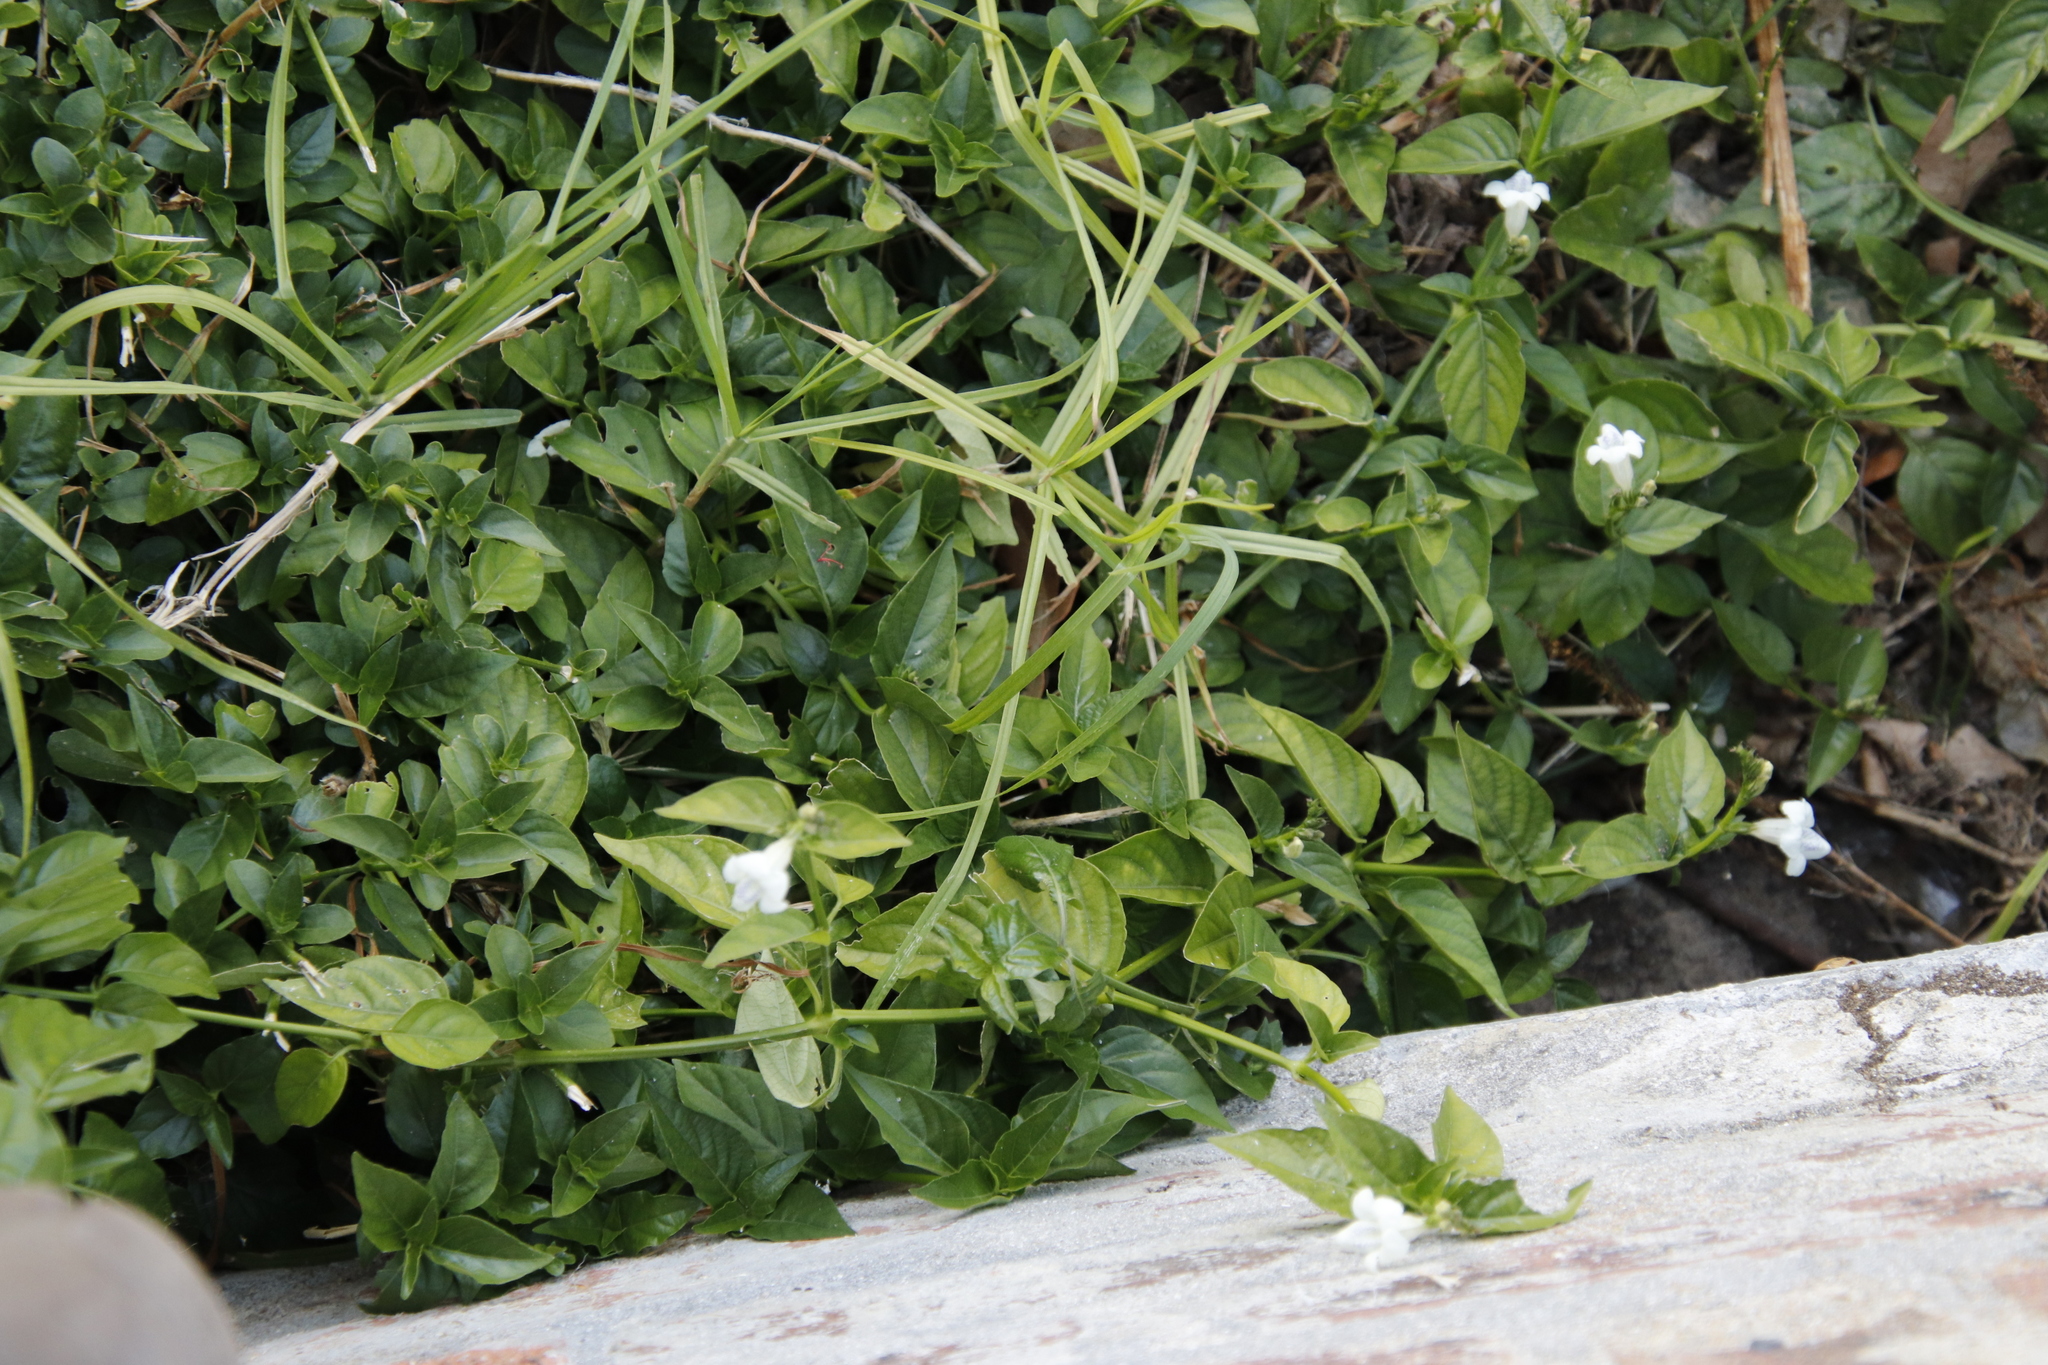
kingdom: Plantae
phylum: Tracheophyta
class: Magnoliopsida
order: Lamiales
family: Acanthaceae
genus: Asystasia
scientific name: Asystasia intrusa
